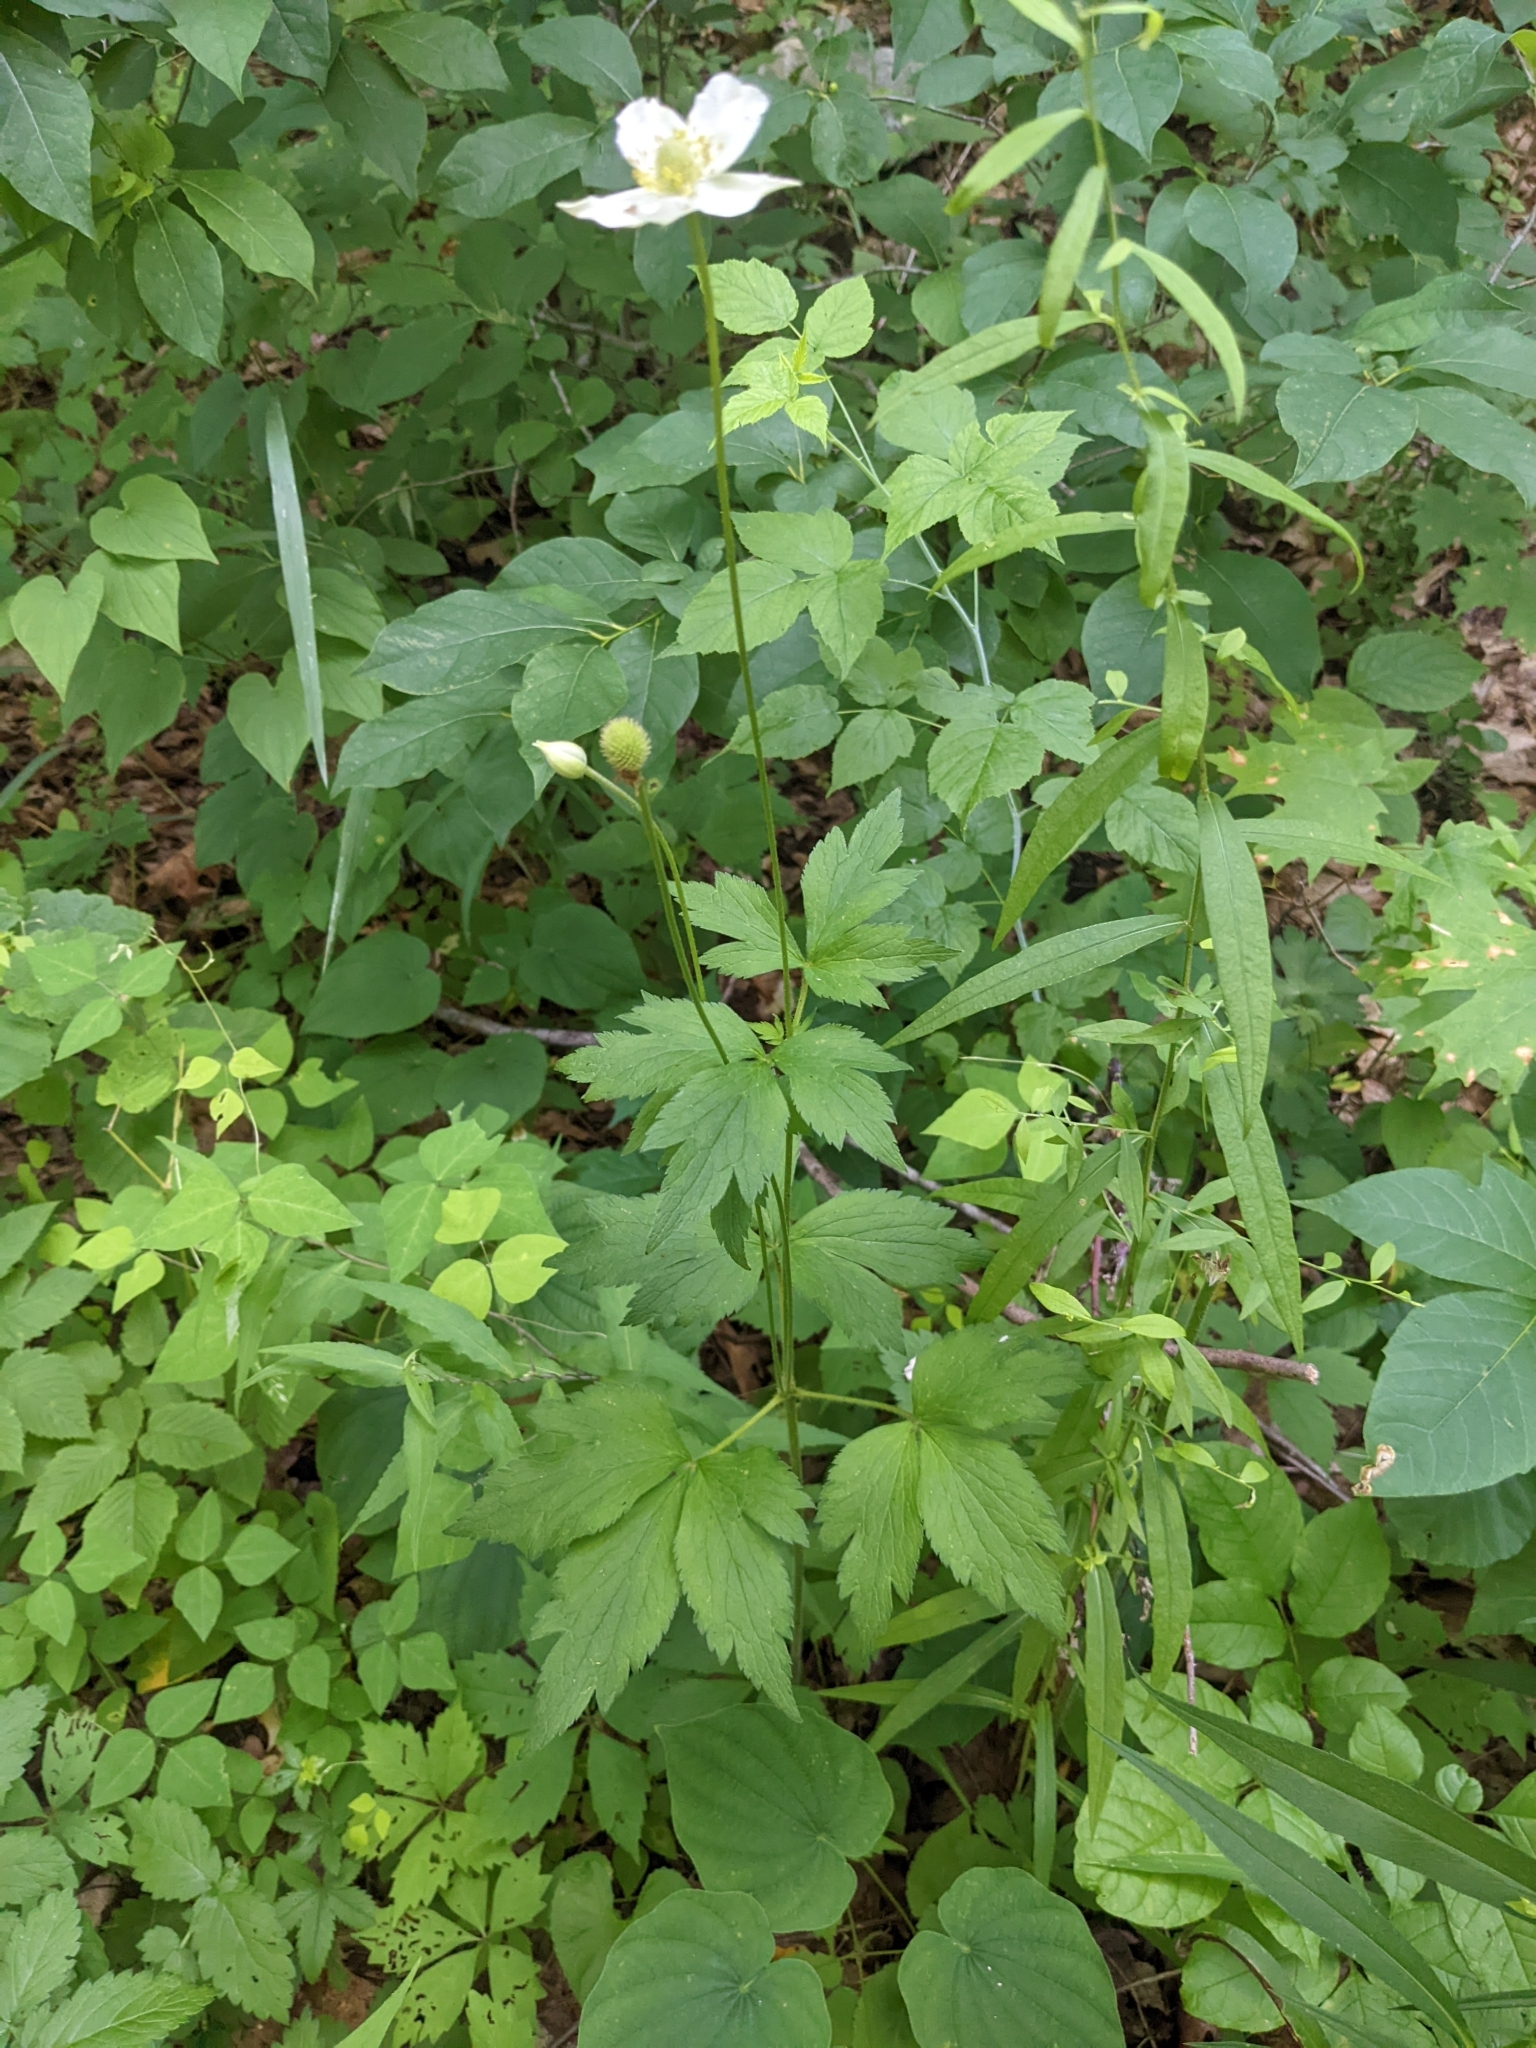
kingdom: Plantae
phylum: Tracheophyta
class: Magnoliopsida
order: Ranunculales
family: Ranunculaceae
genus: Anemone
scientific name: Anemone virginiana
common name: Tall anemone
